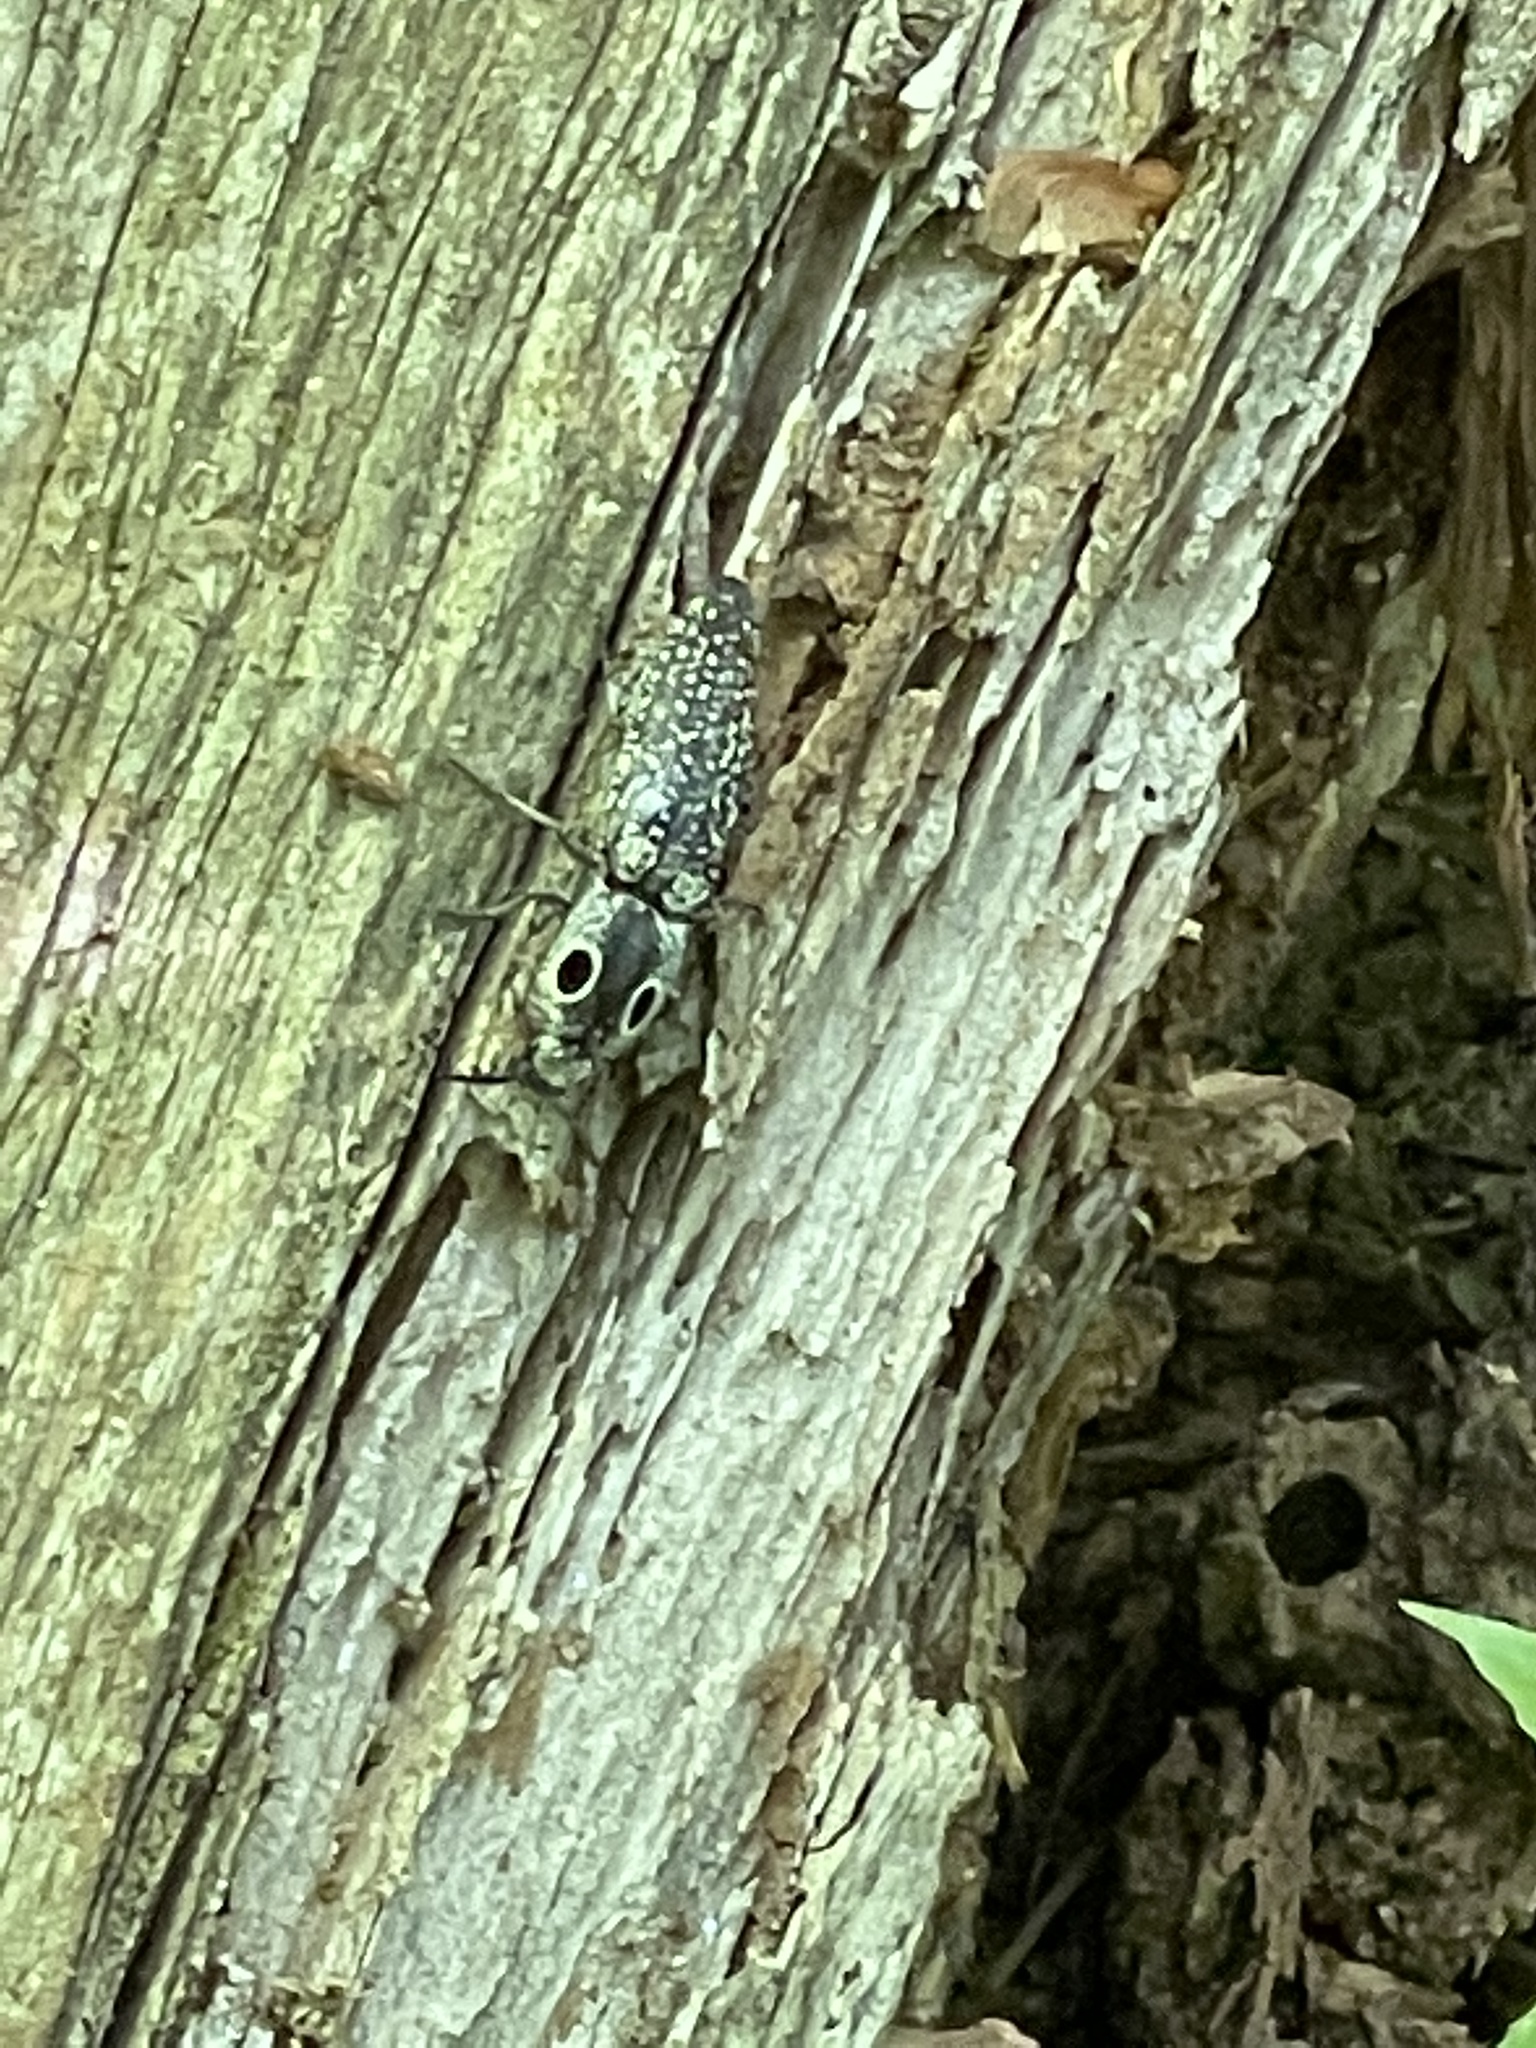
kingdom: Animalia
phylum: Arthropoda
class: Insecta
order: Coleoptera
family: Elateridae
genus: Alaus
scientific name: Alaus oculatus
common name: Eastern eyed click beetle
